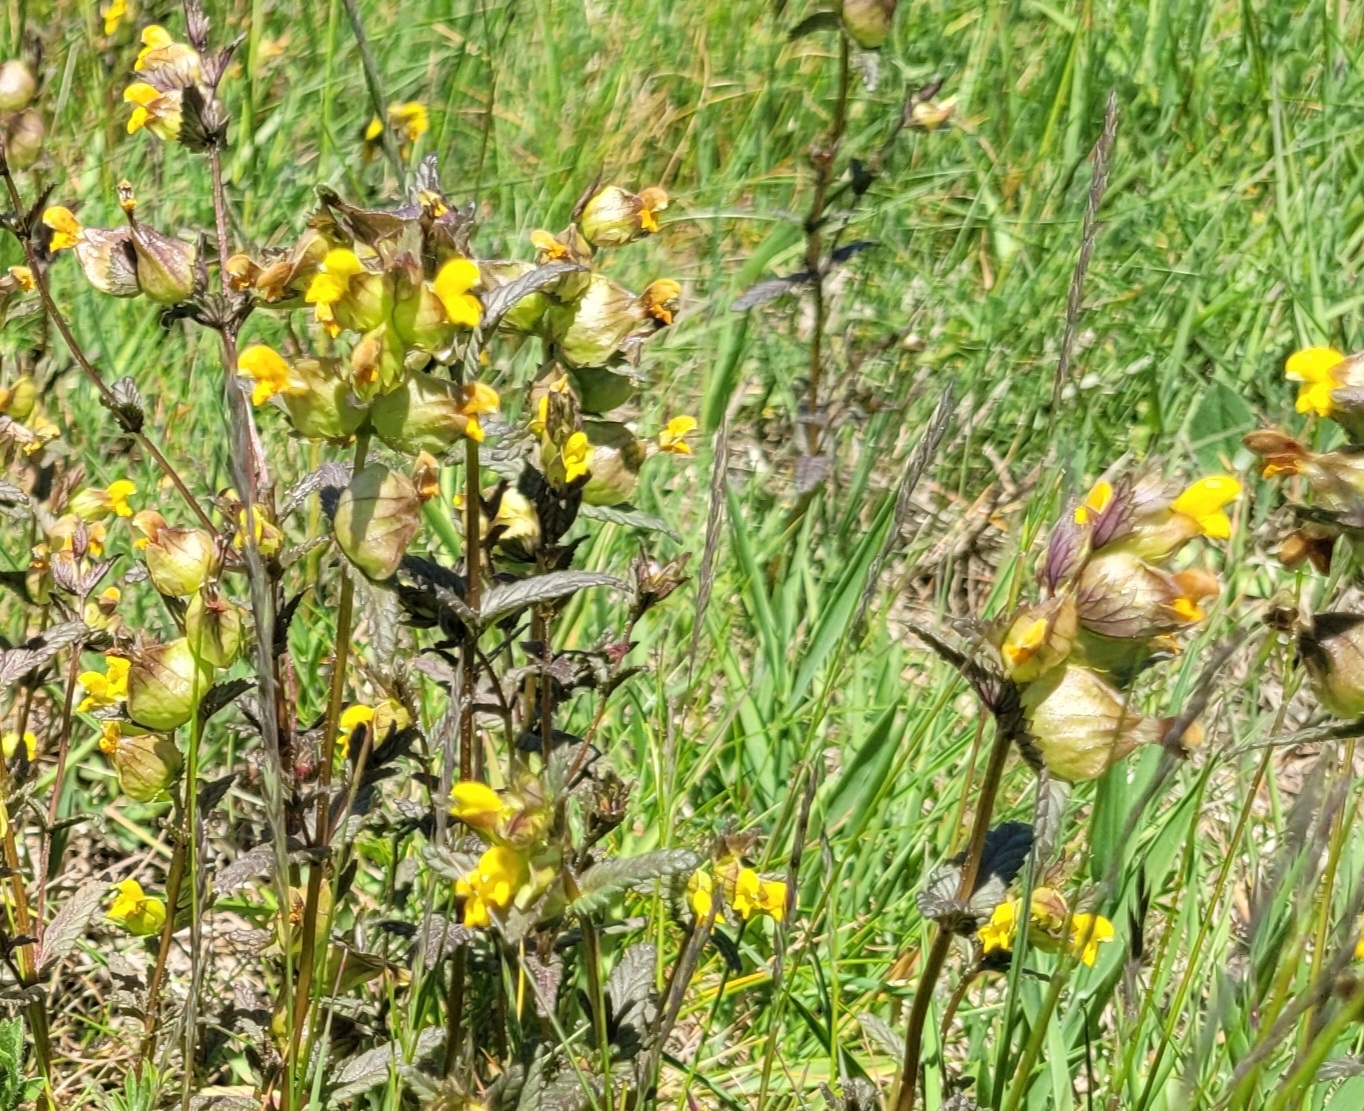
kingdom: Plantae
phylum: Tracheophyta
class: Magnoliopsida
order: Lamiales
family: Orobanchaceae
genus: Rhinanthus
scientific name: Rhinanthus minor
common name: Yellow-rattle
